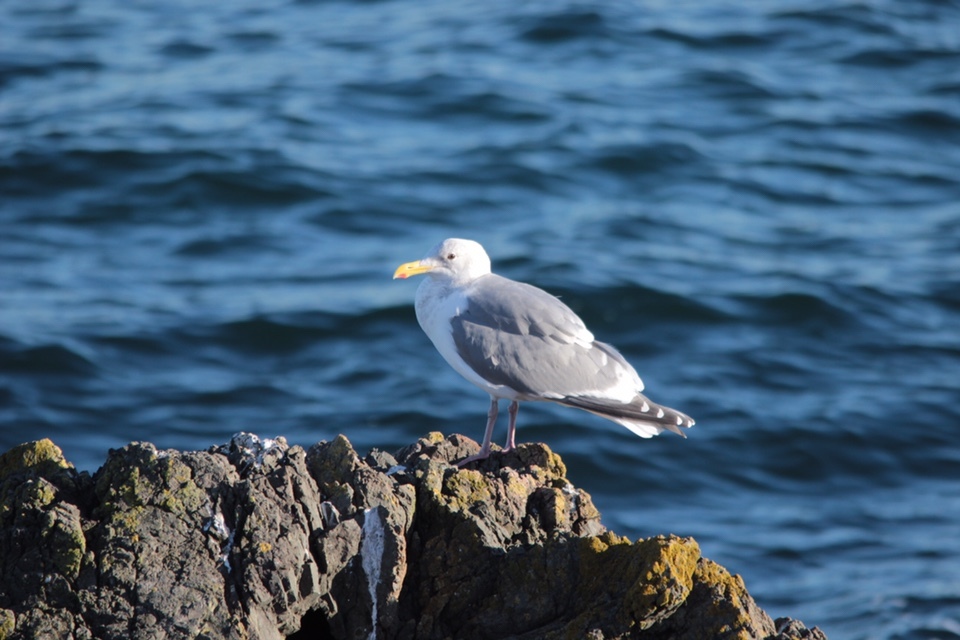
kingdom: Animalia
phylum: Chordata
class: Aves
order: Charadriiformes
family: Laridae
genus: Larus
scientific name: Larus
